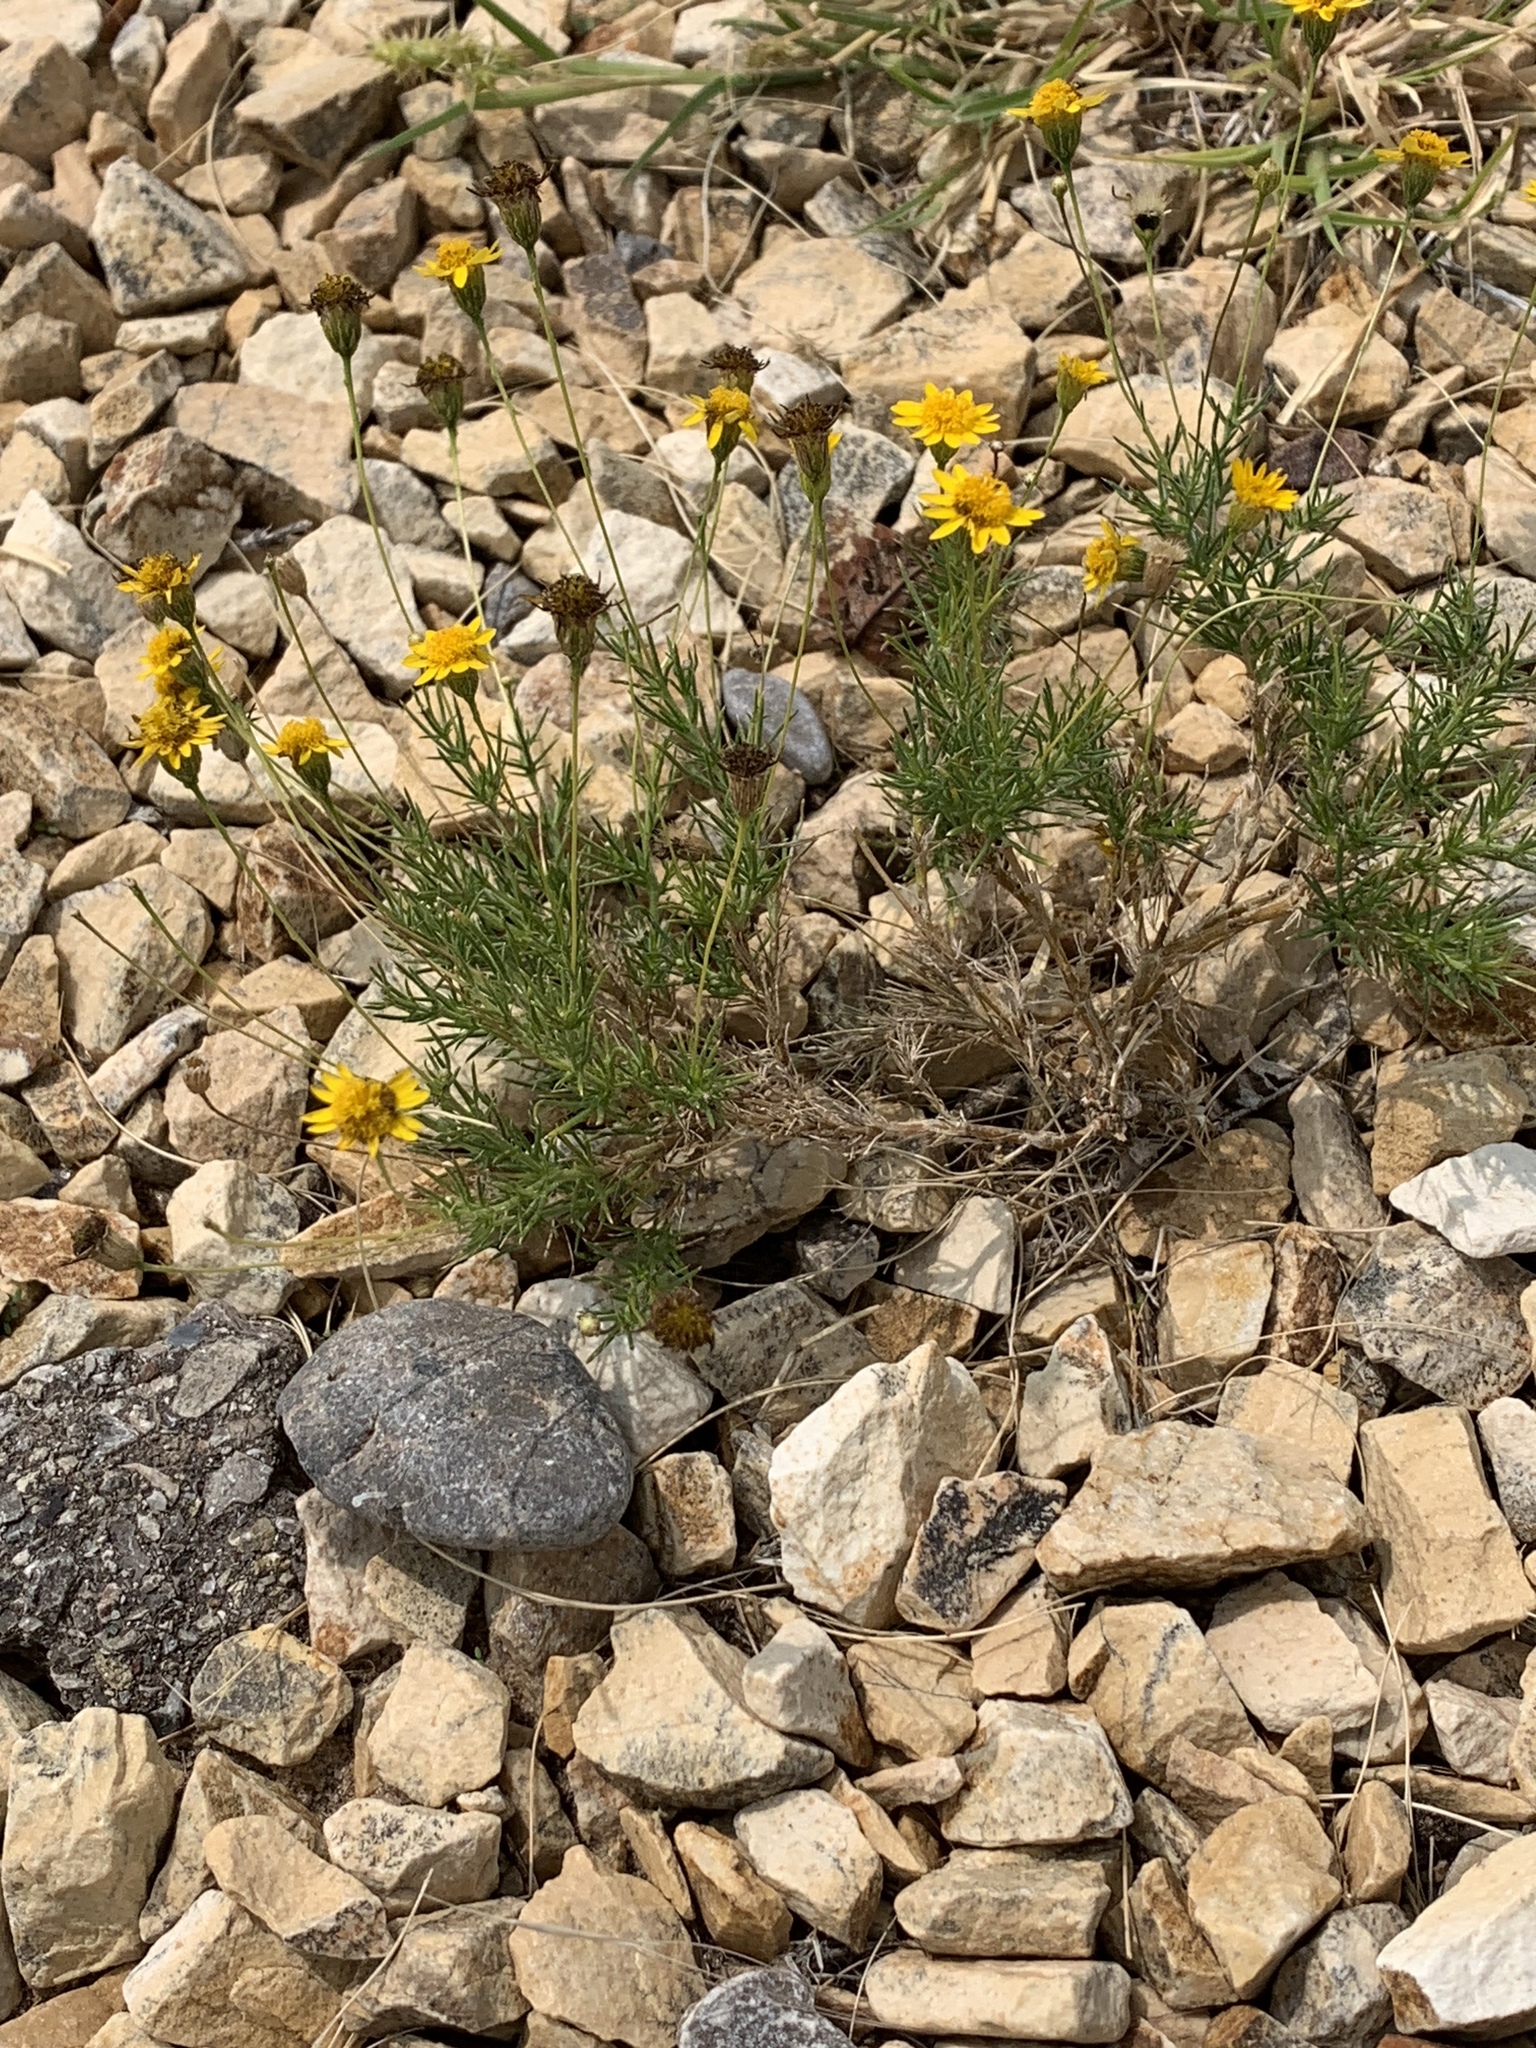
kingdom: Plantae
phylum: Tracheophyta
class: Magnoliopsida
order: Asterales
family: Asteraceae
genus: Thymophylla
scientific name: Thymophylla pentachaeta
